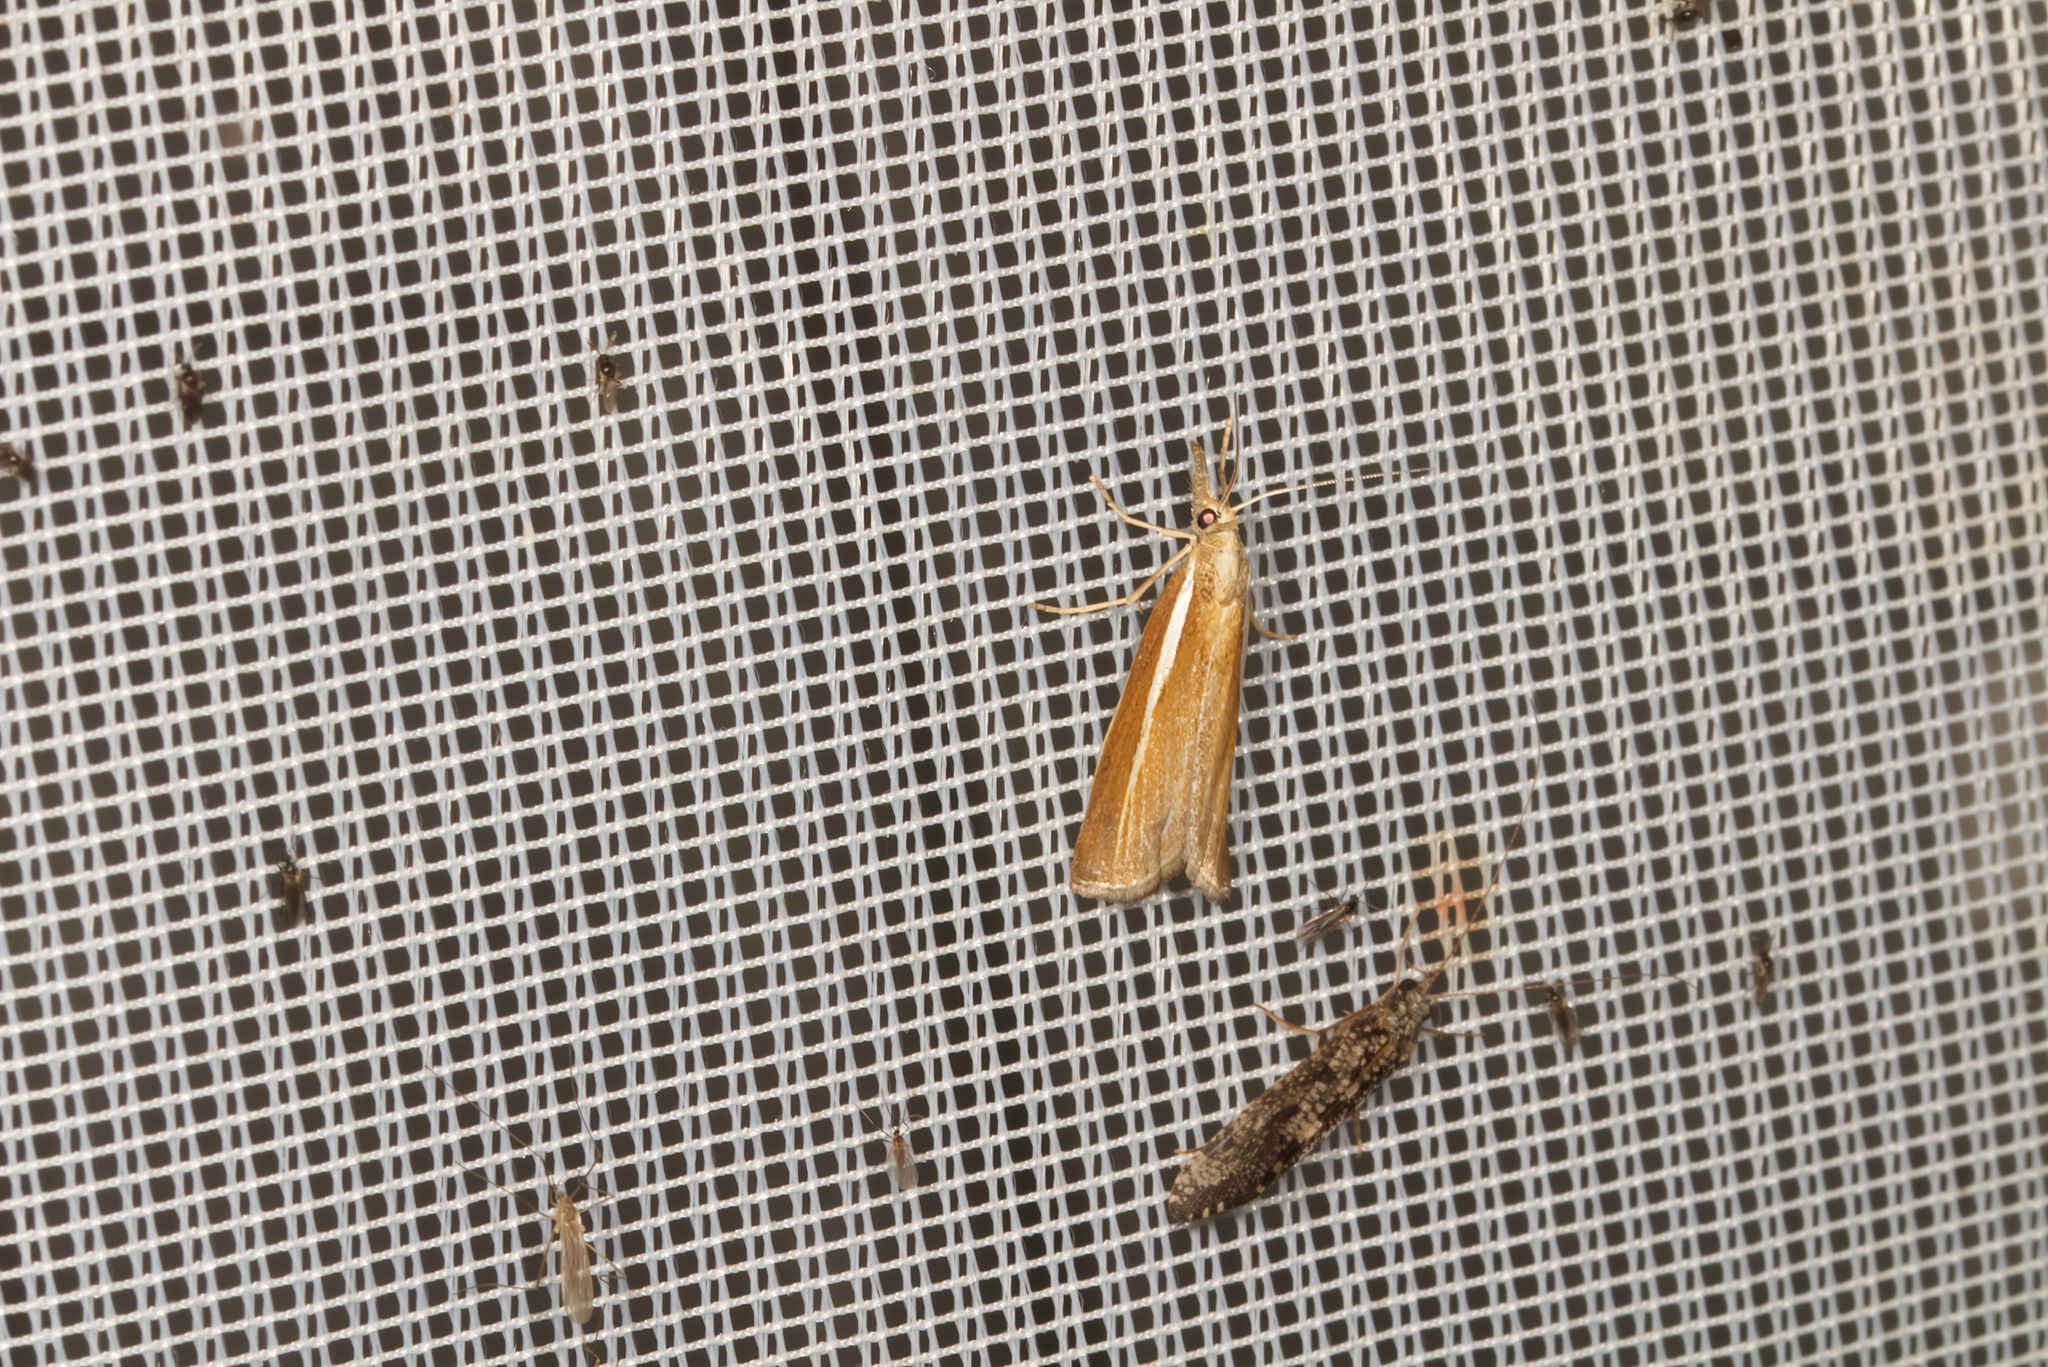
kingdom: Animalia
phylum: Arthropoda
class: Insecta
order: Lepidoptera
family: Crambidae
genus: Agriphila
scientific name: Agriphila tristellus
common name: Common grass-veneer
